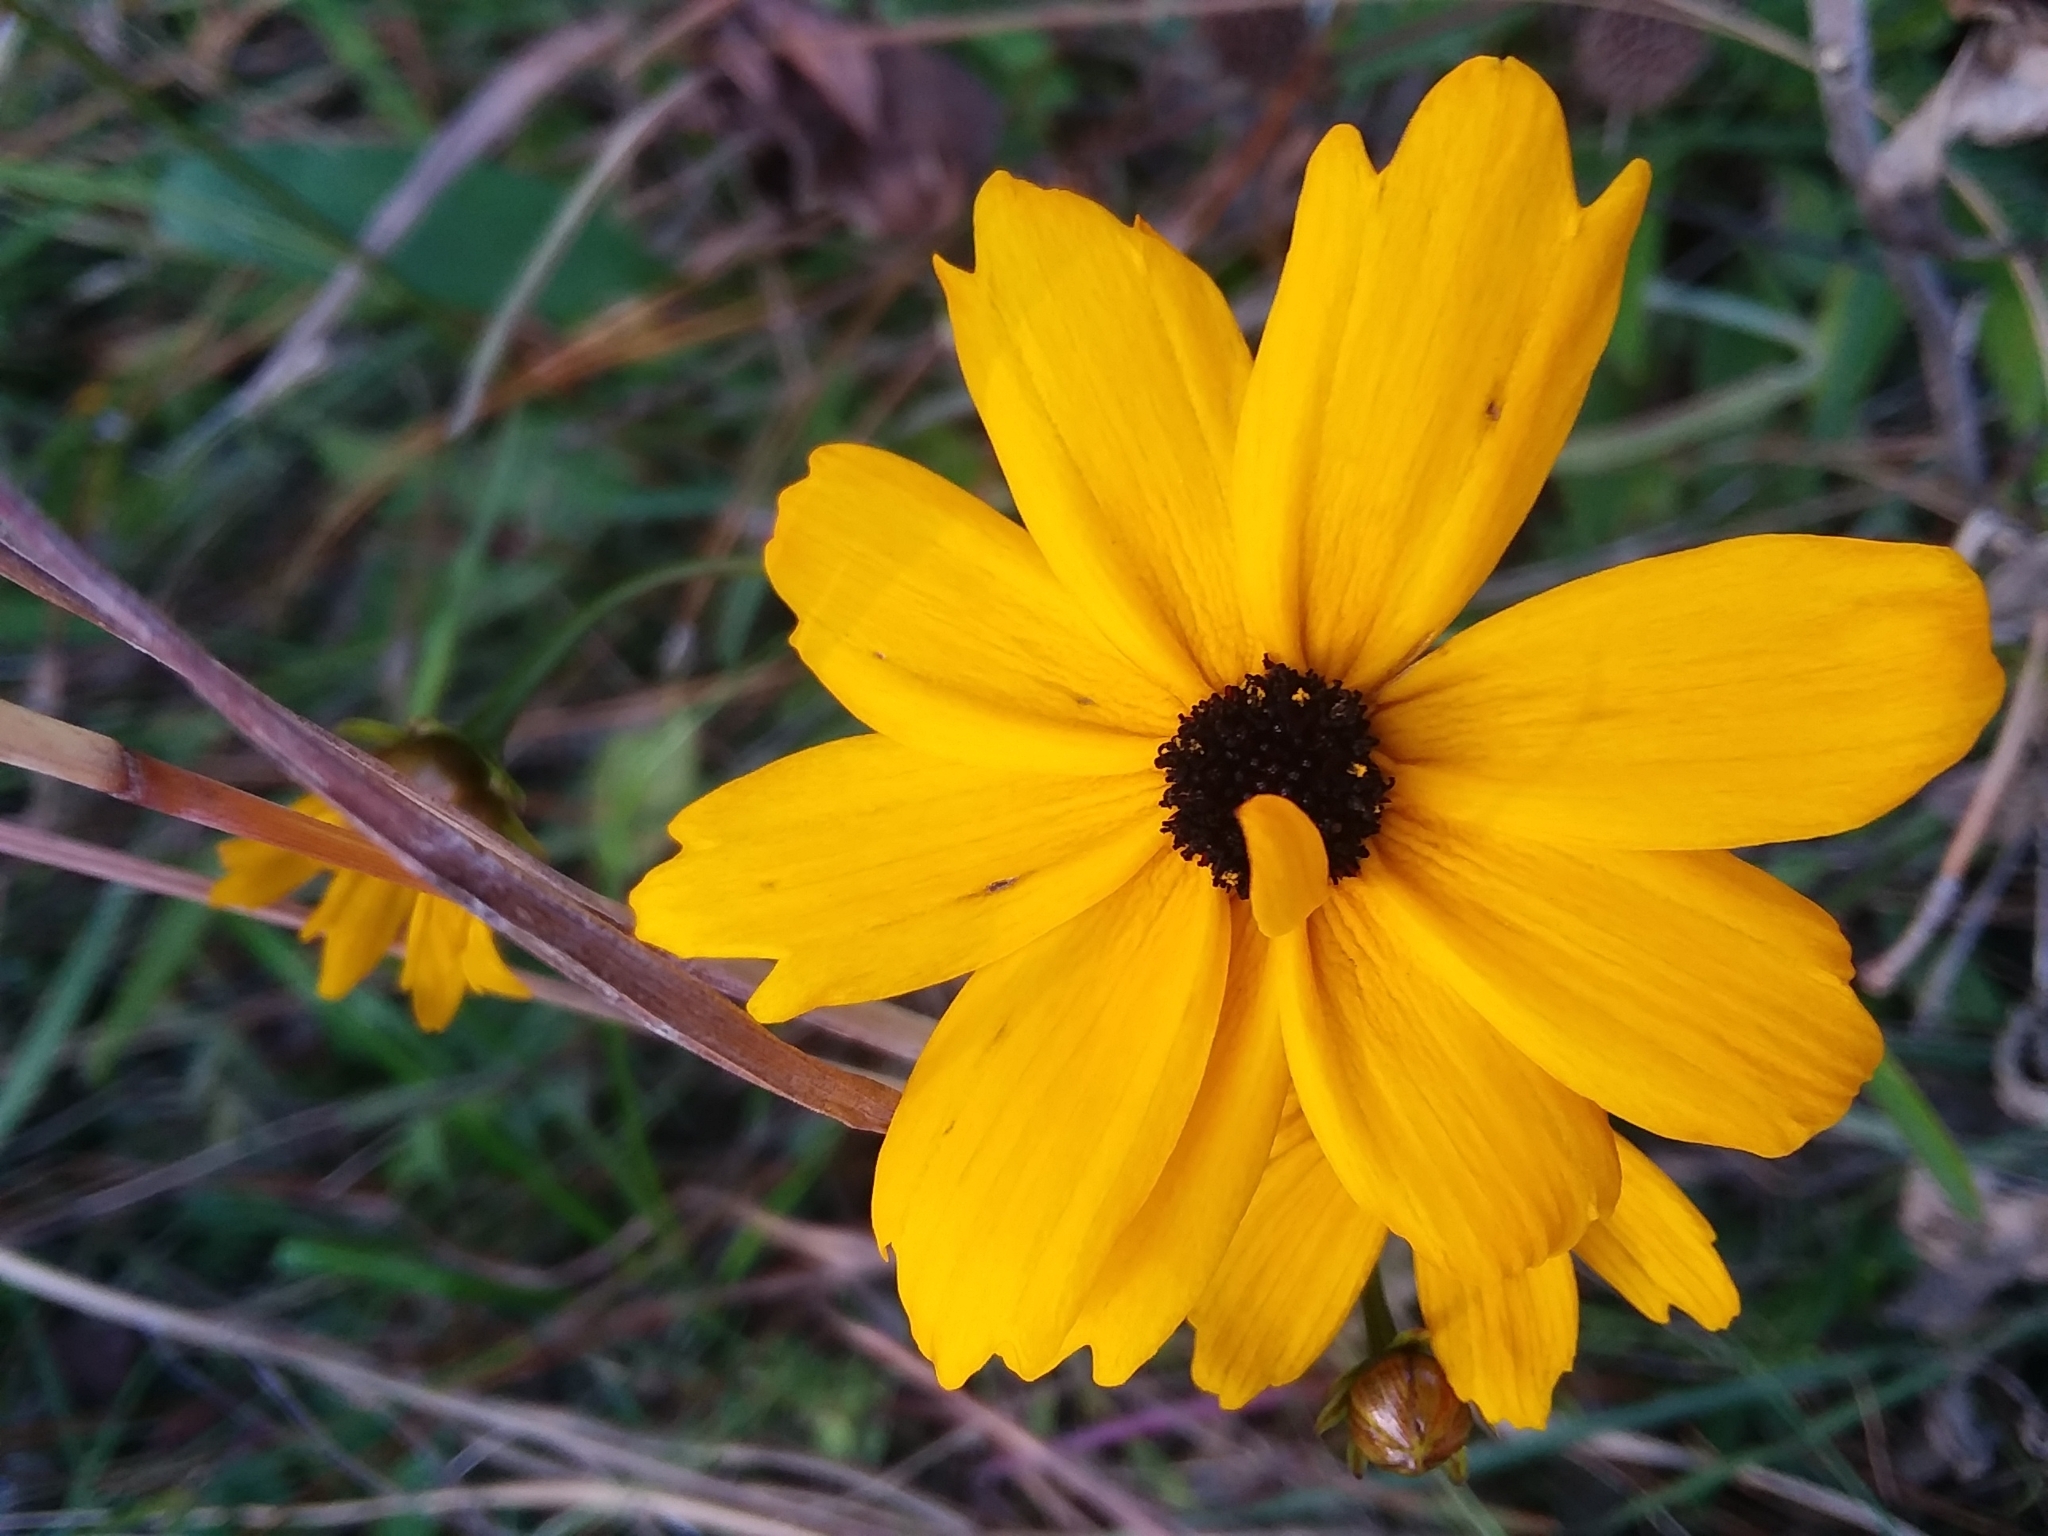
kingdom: Plantae
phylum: Tracheophyta
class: Magnoliopsida
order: Asterales
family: Asteraceae
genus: Coreopsis
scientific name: Coreopsis gladiata
